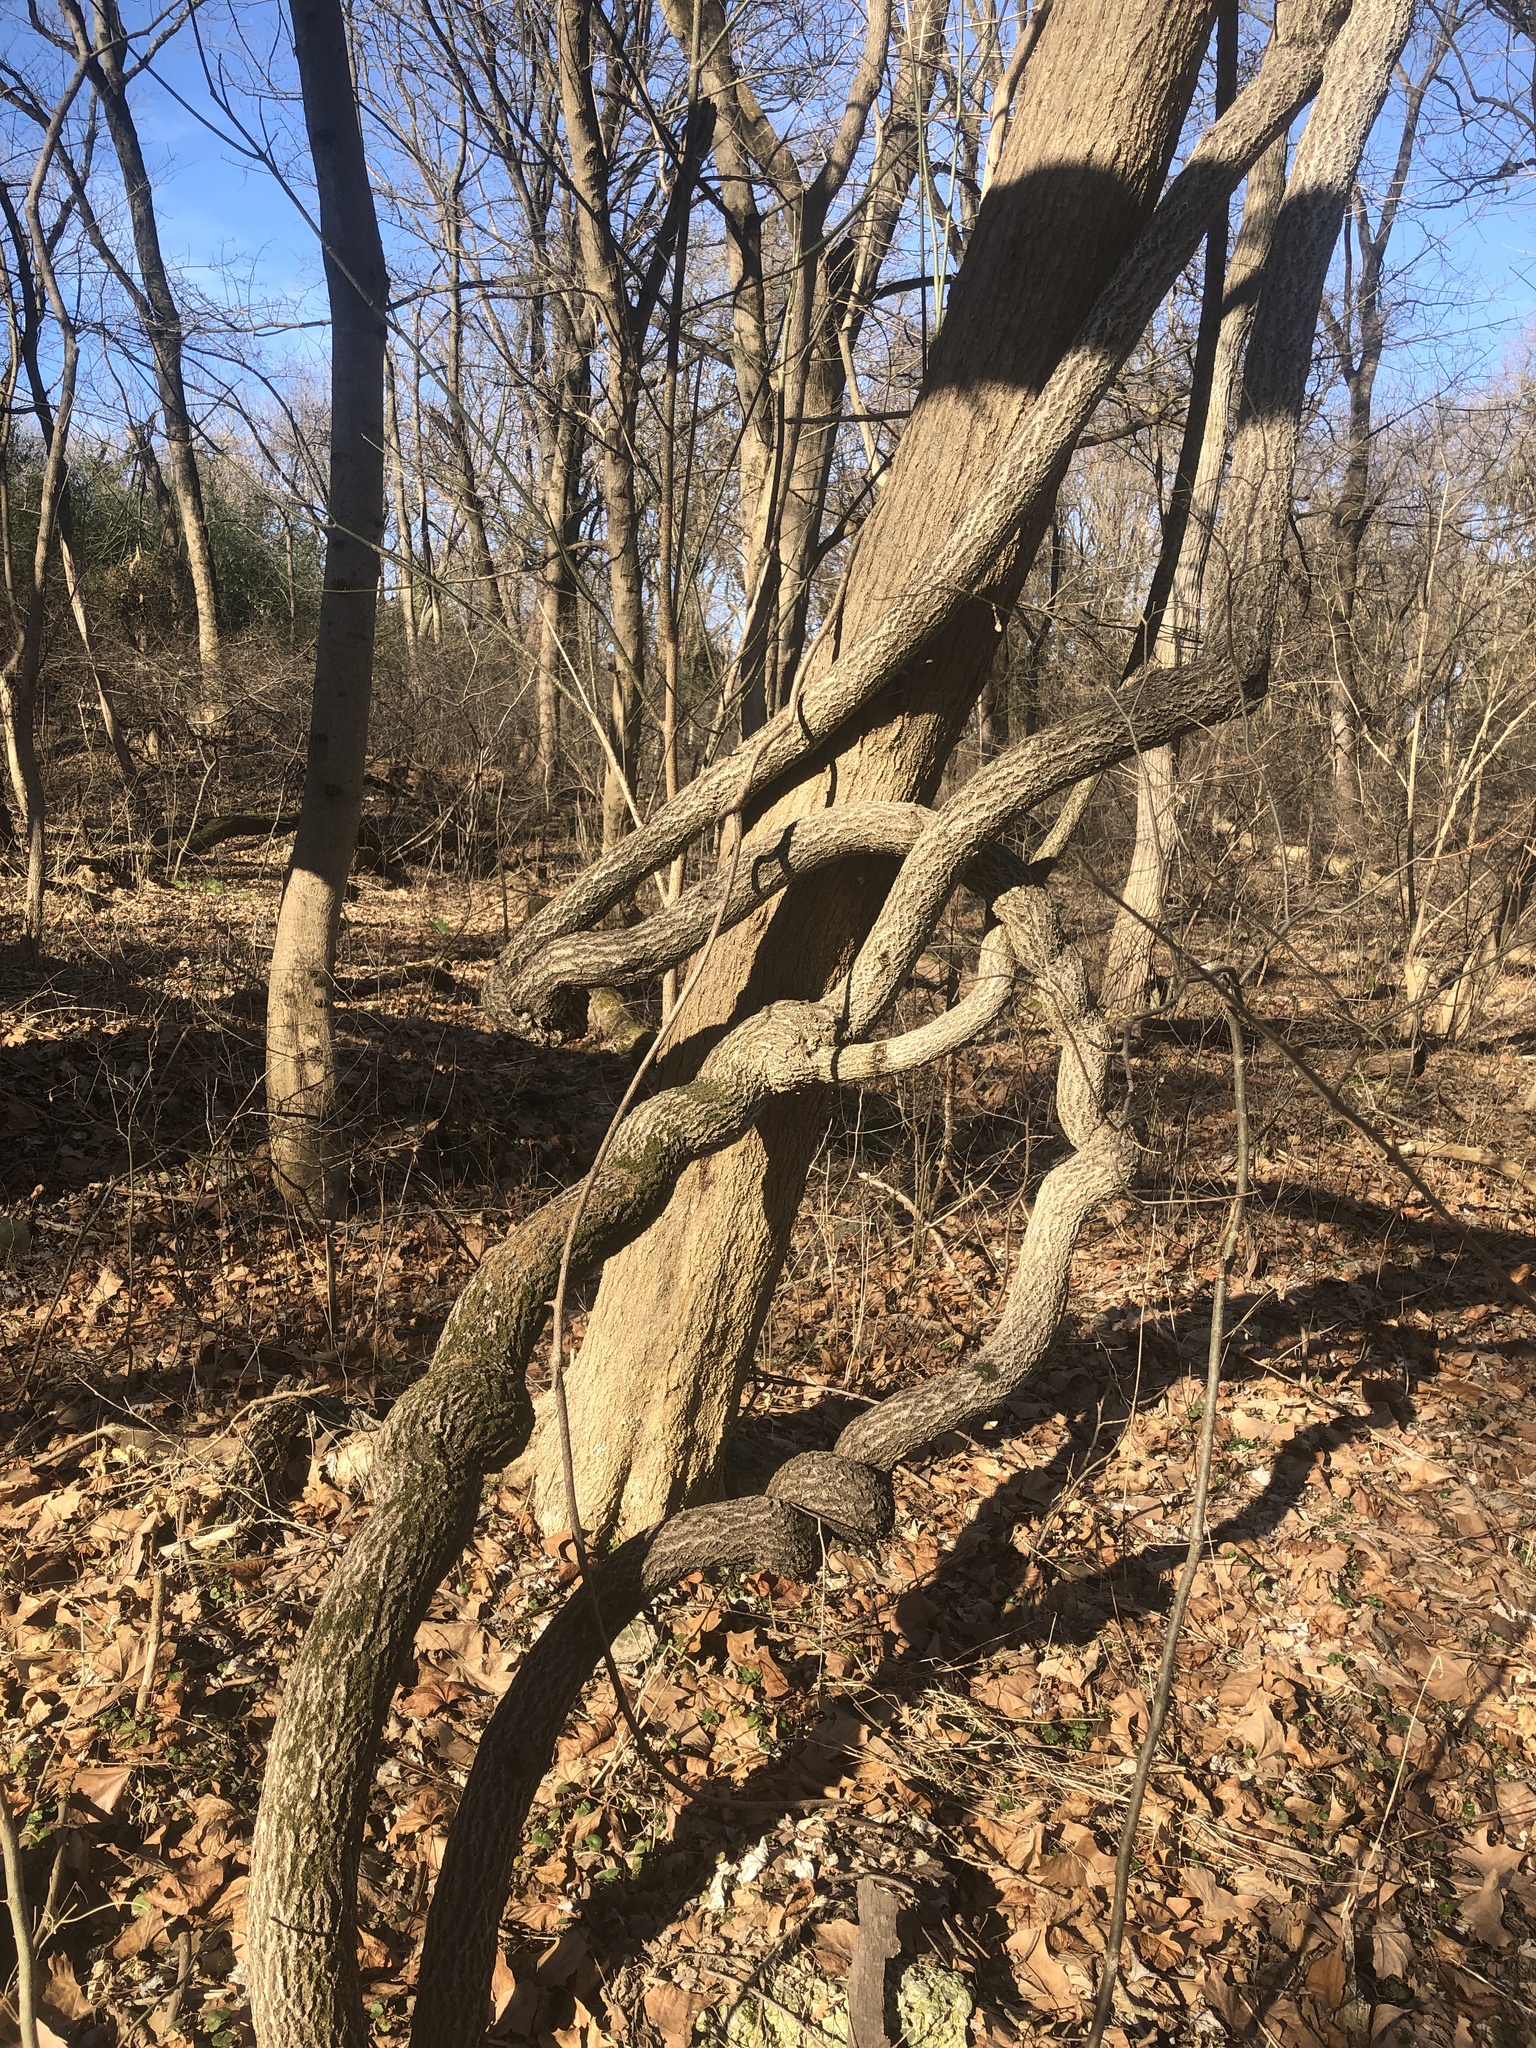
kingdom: Plantae
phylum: Tracheophyta
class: Magnoliopsida
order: Celastrales
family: Celastraceae
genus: Celastrus
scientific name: Celastrus orbiculatus
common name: Oriental bittersweet
